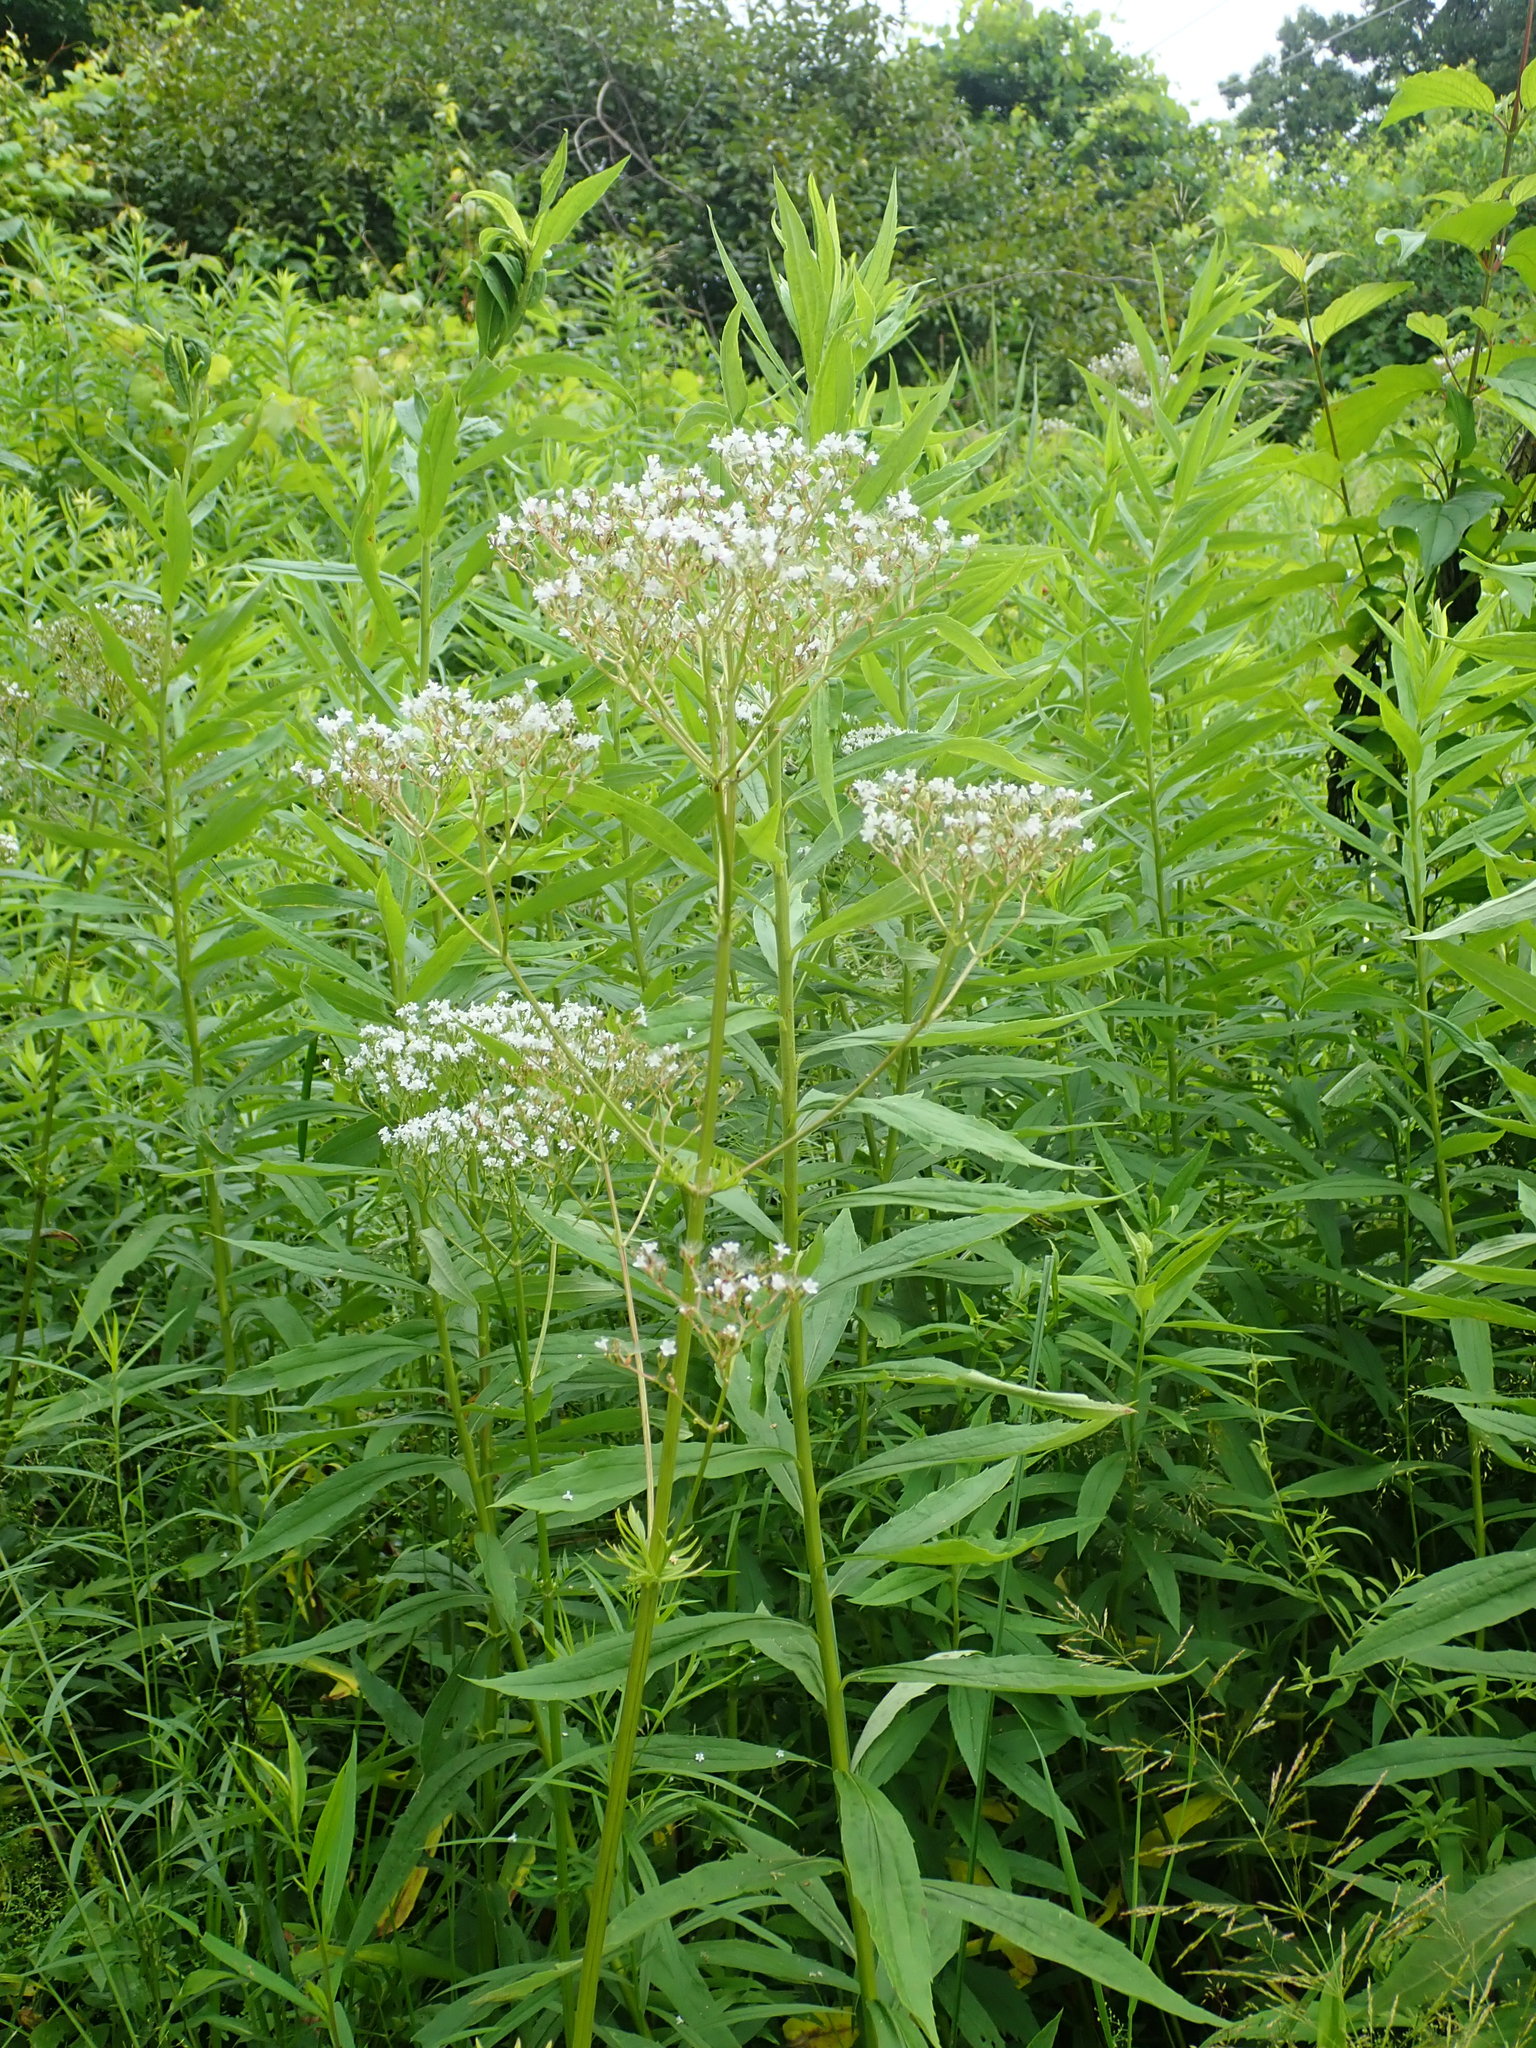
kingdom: Plantae
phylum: Tracheophyta
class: Magnoliopsida
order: Dipsacales
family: Caprifoliaceae
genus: Valeriana
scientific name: Valeriana officinalis
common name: Common valerian
